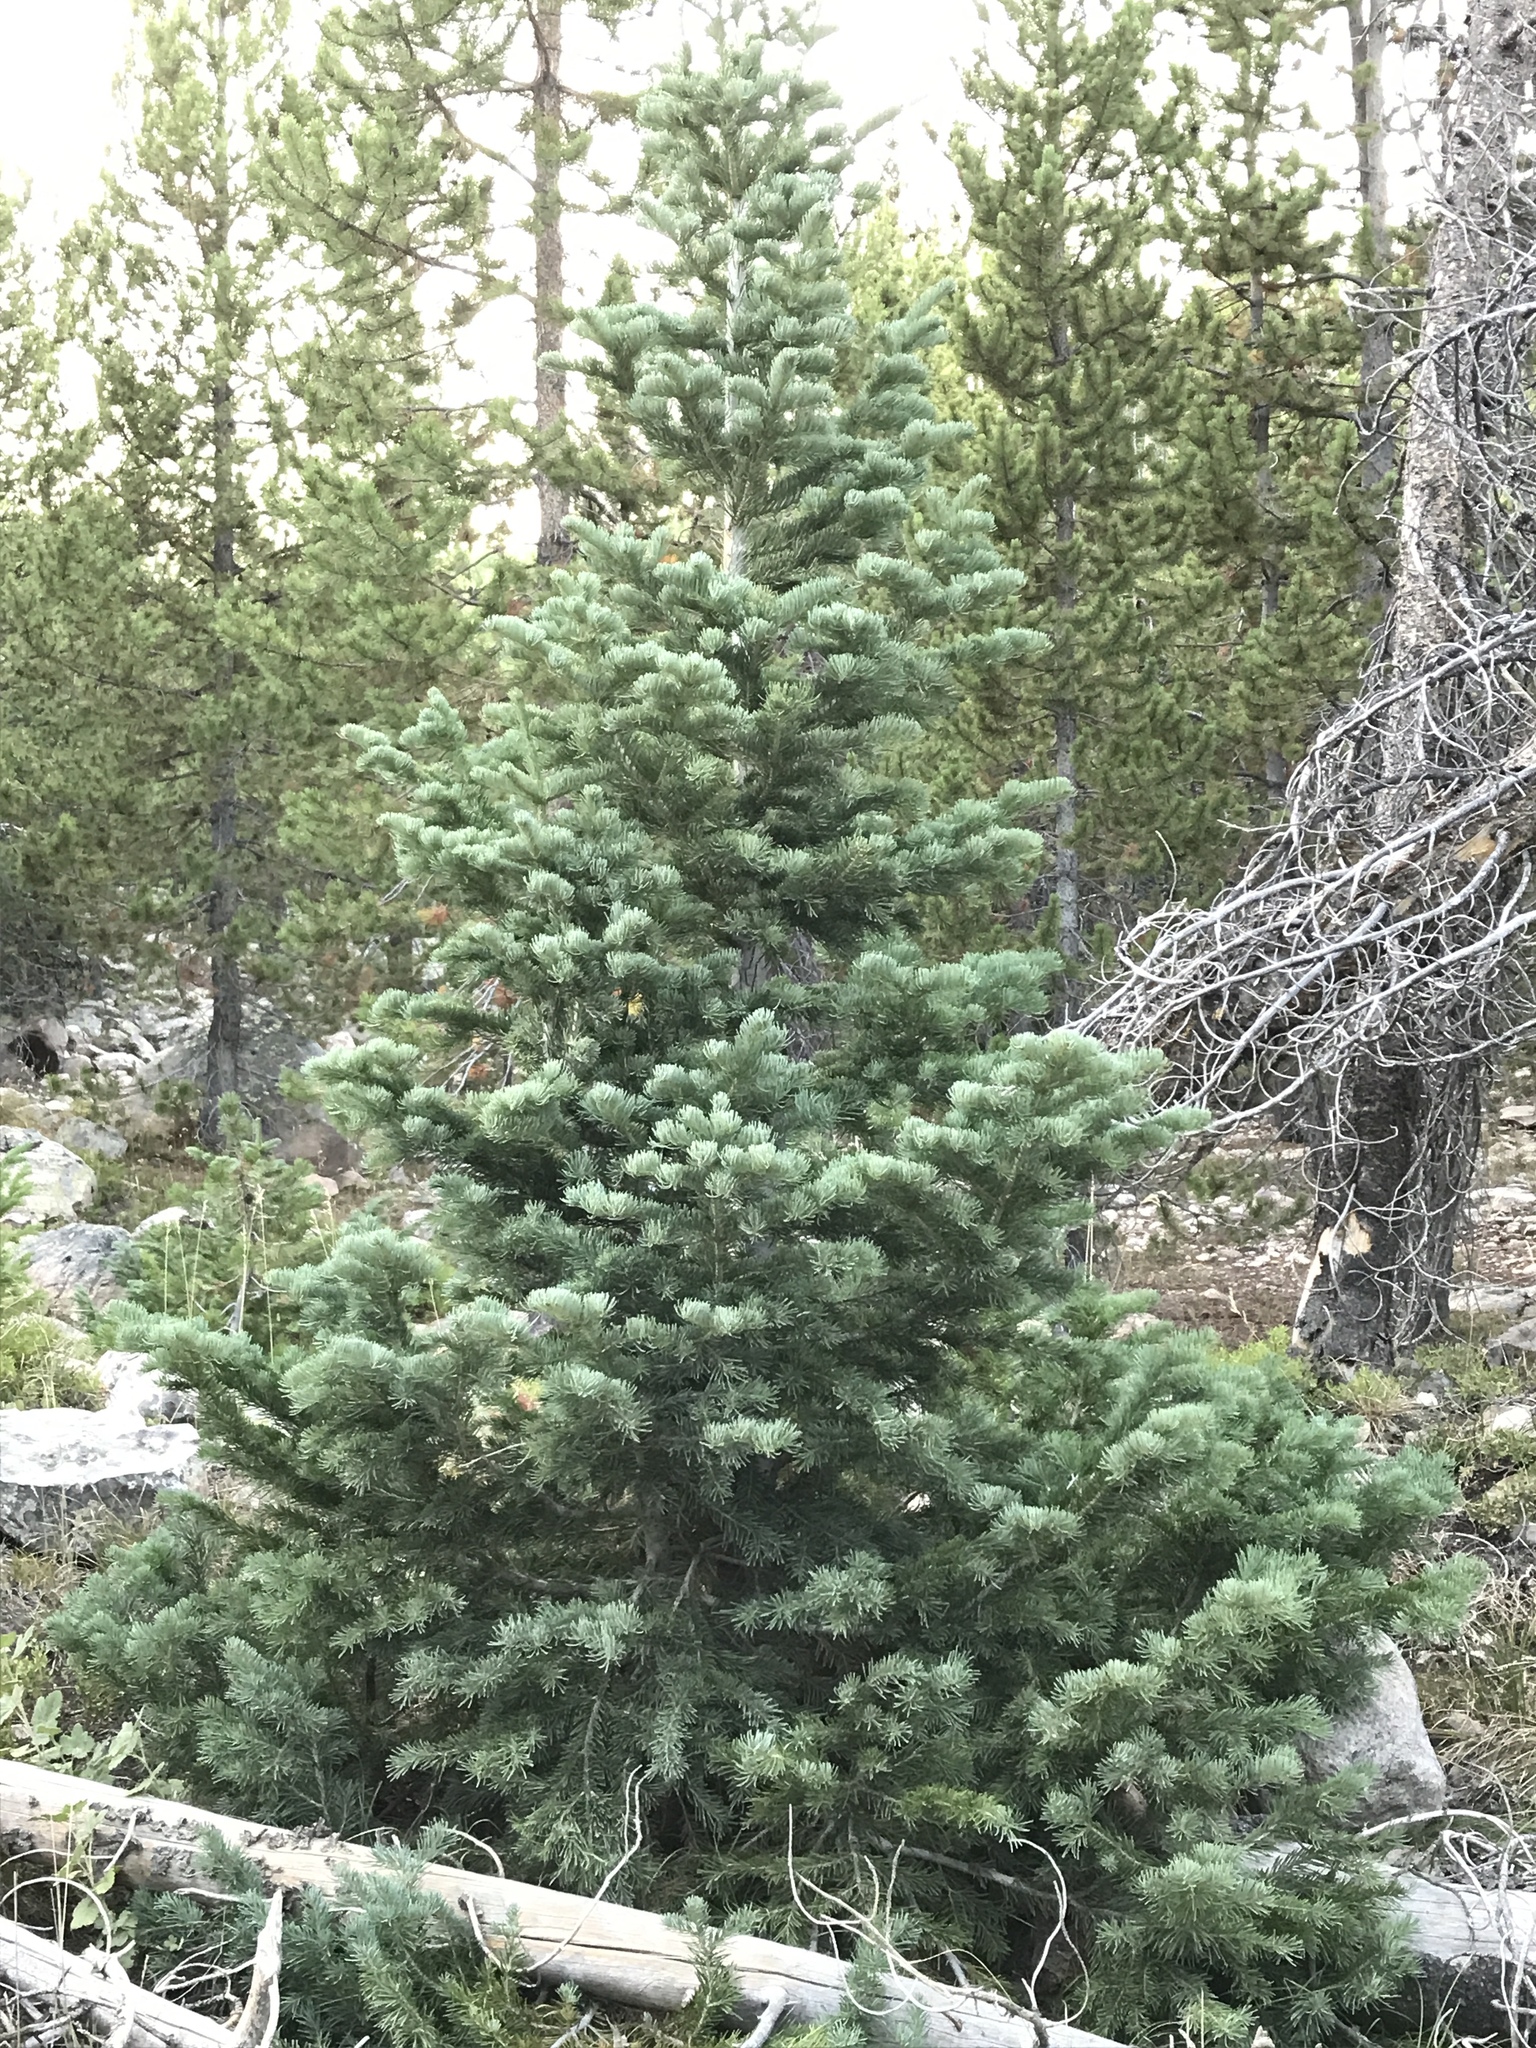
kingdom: Plantae
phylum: Tracheophyta
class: Pinopsida
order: Pinales
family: Pinaceae
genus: Picea
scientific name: Picea pungens
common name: Colorado spruce
